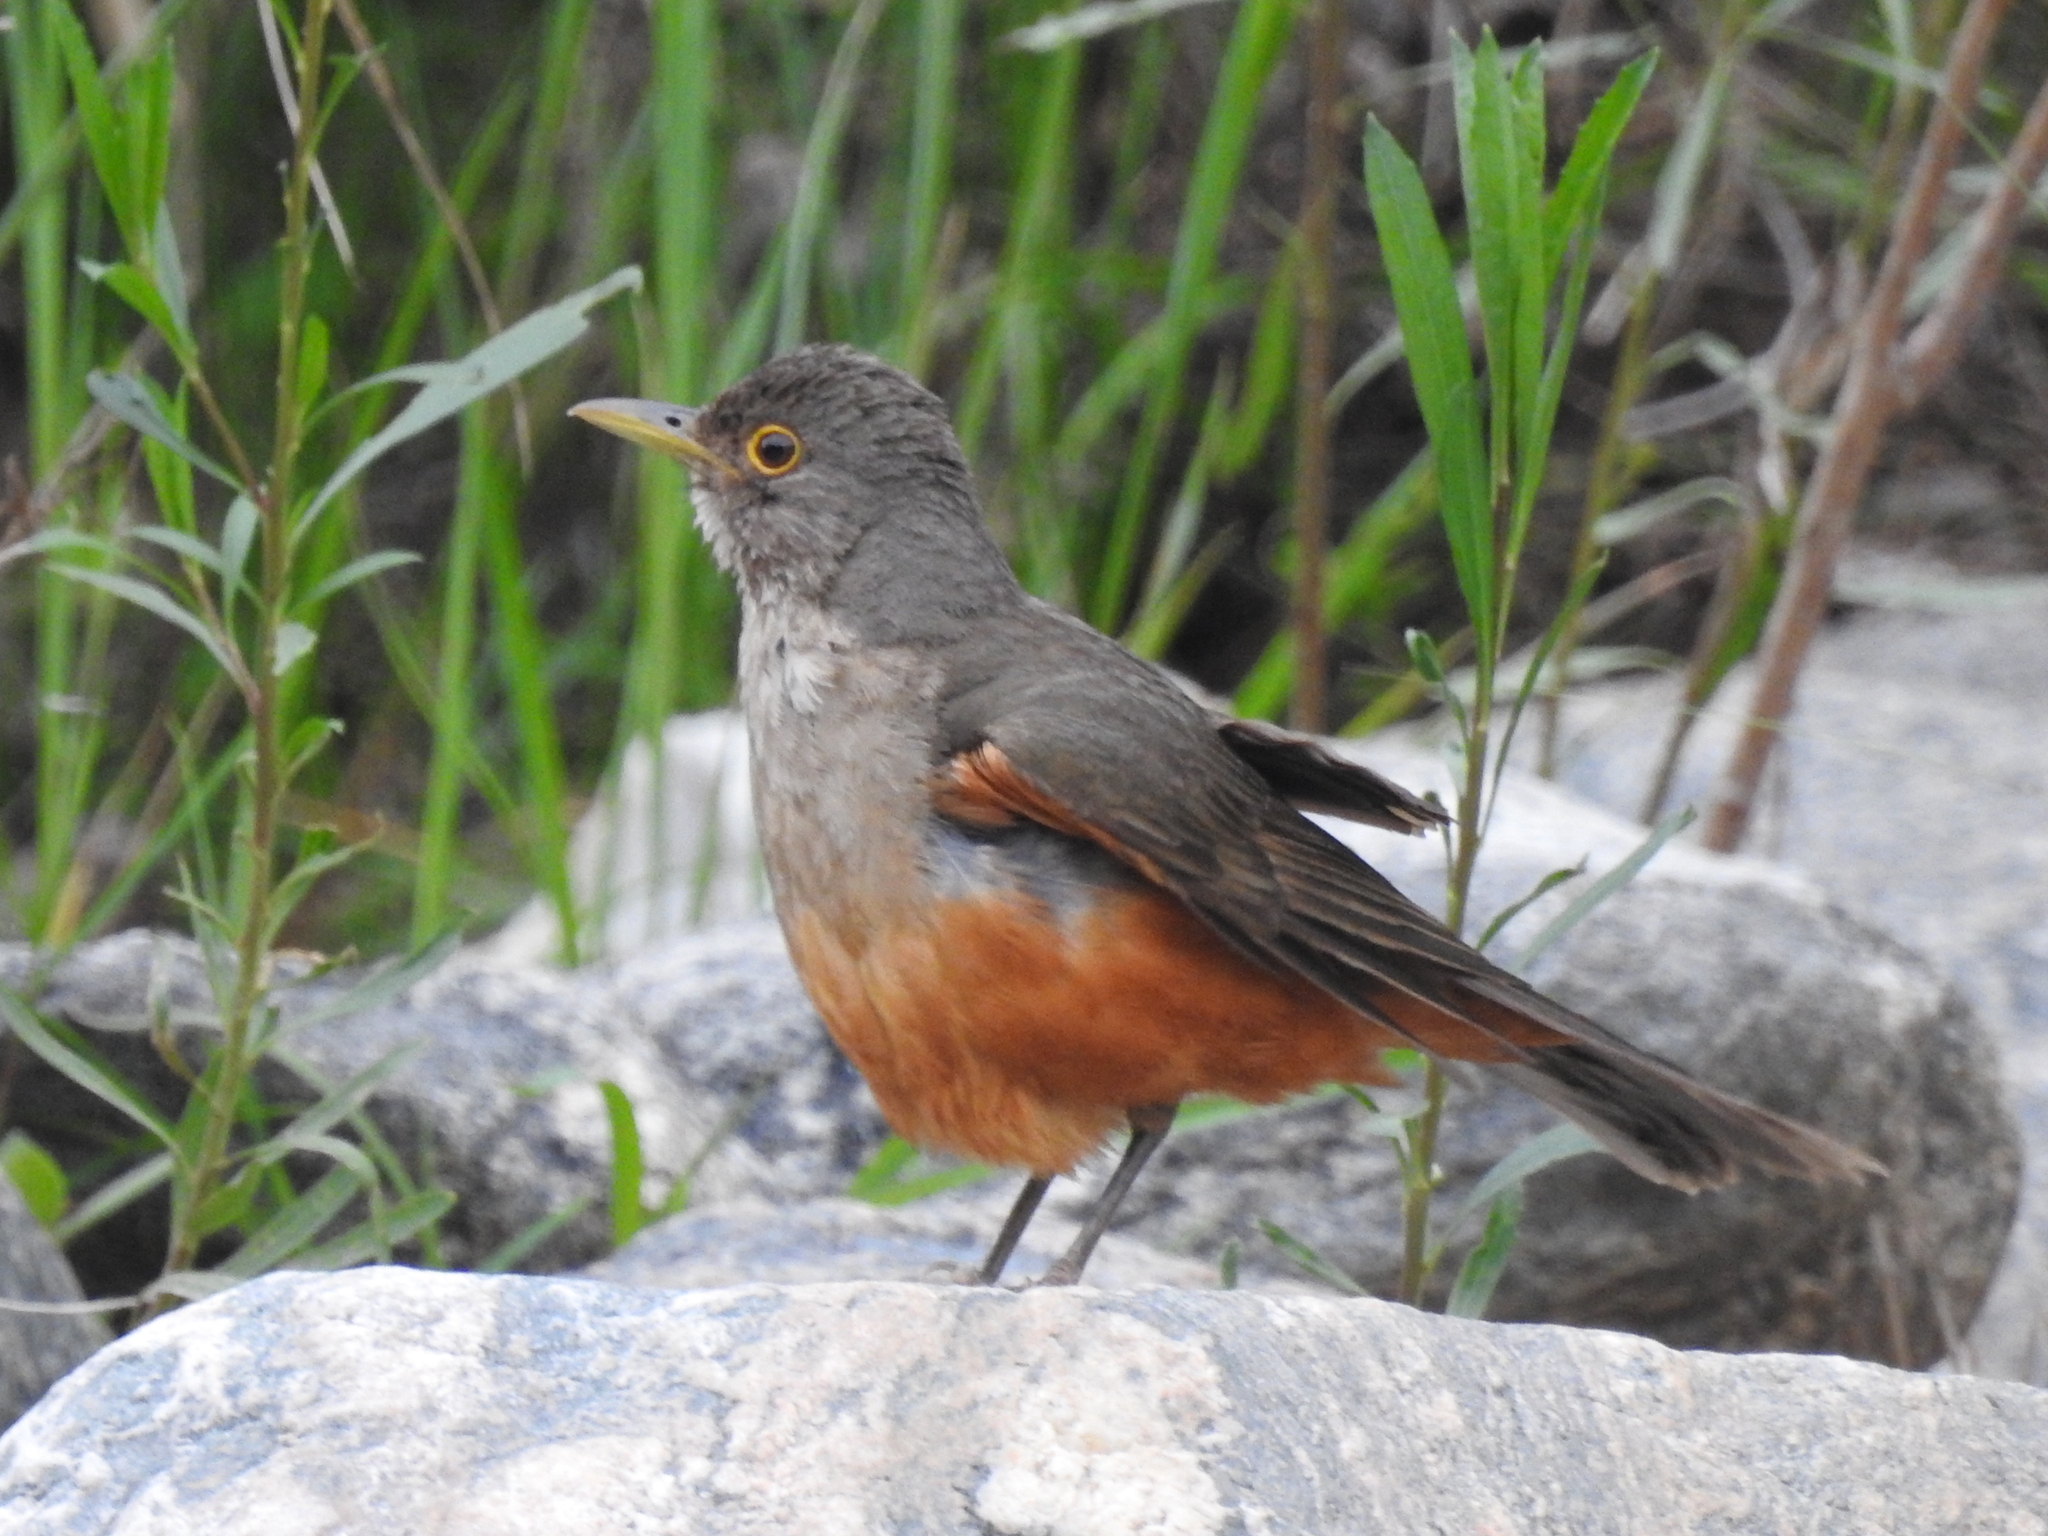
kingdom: Animalia
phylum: Chordata
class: Aves
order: Passeriformes
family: Turdidae
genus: Turdus
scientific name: Turdus rufiventris
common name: Rufous-bellied thrush
